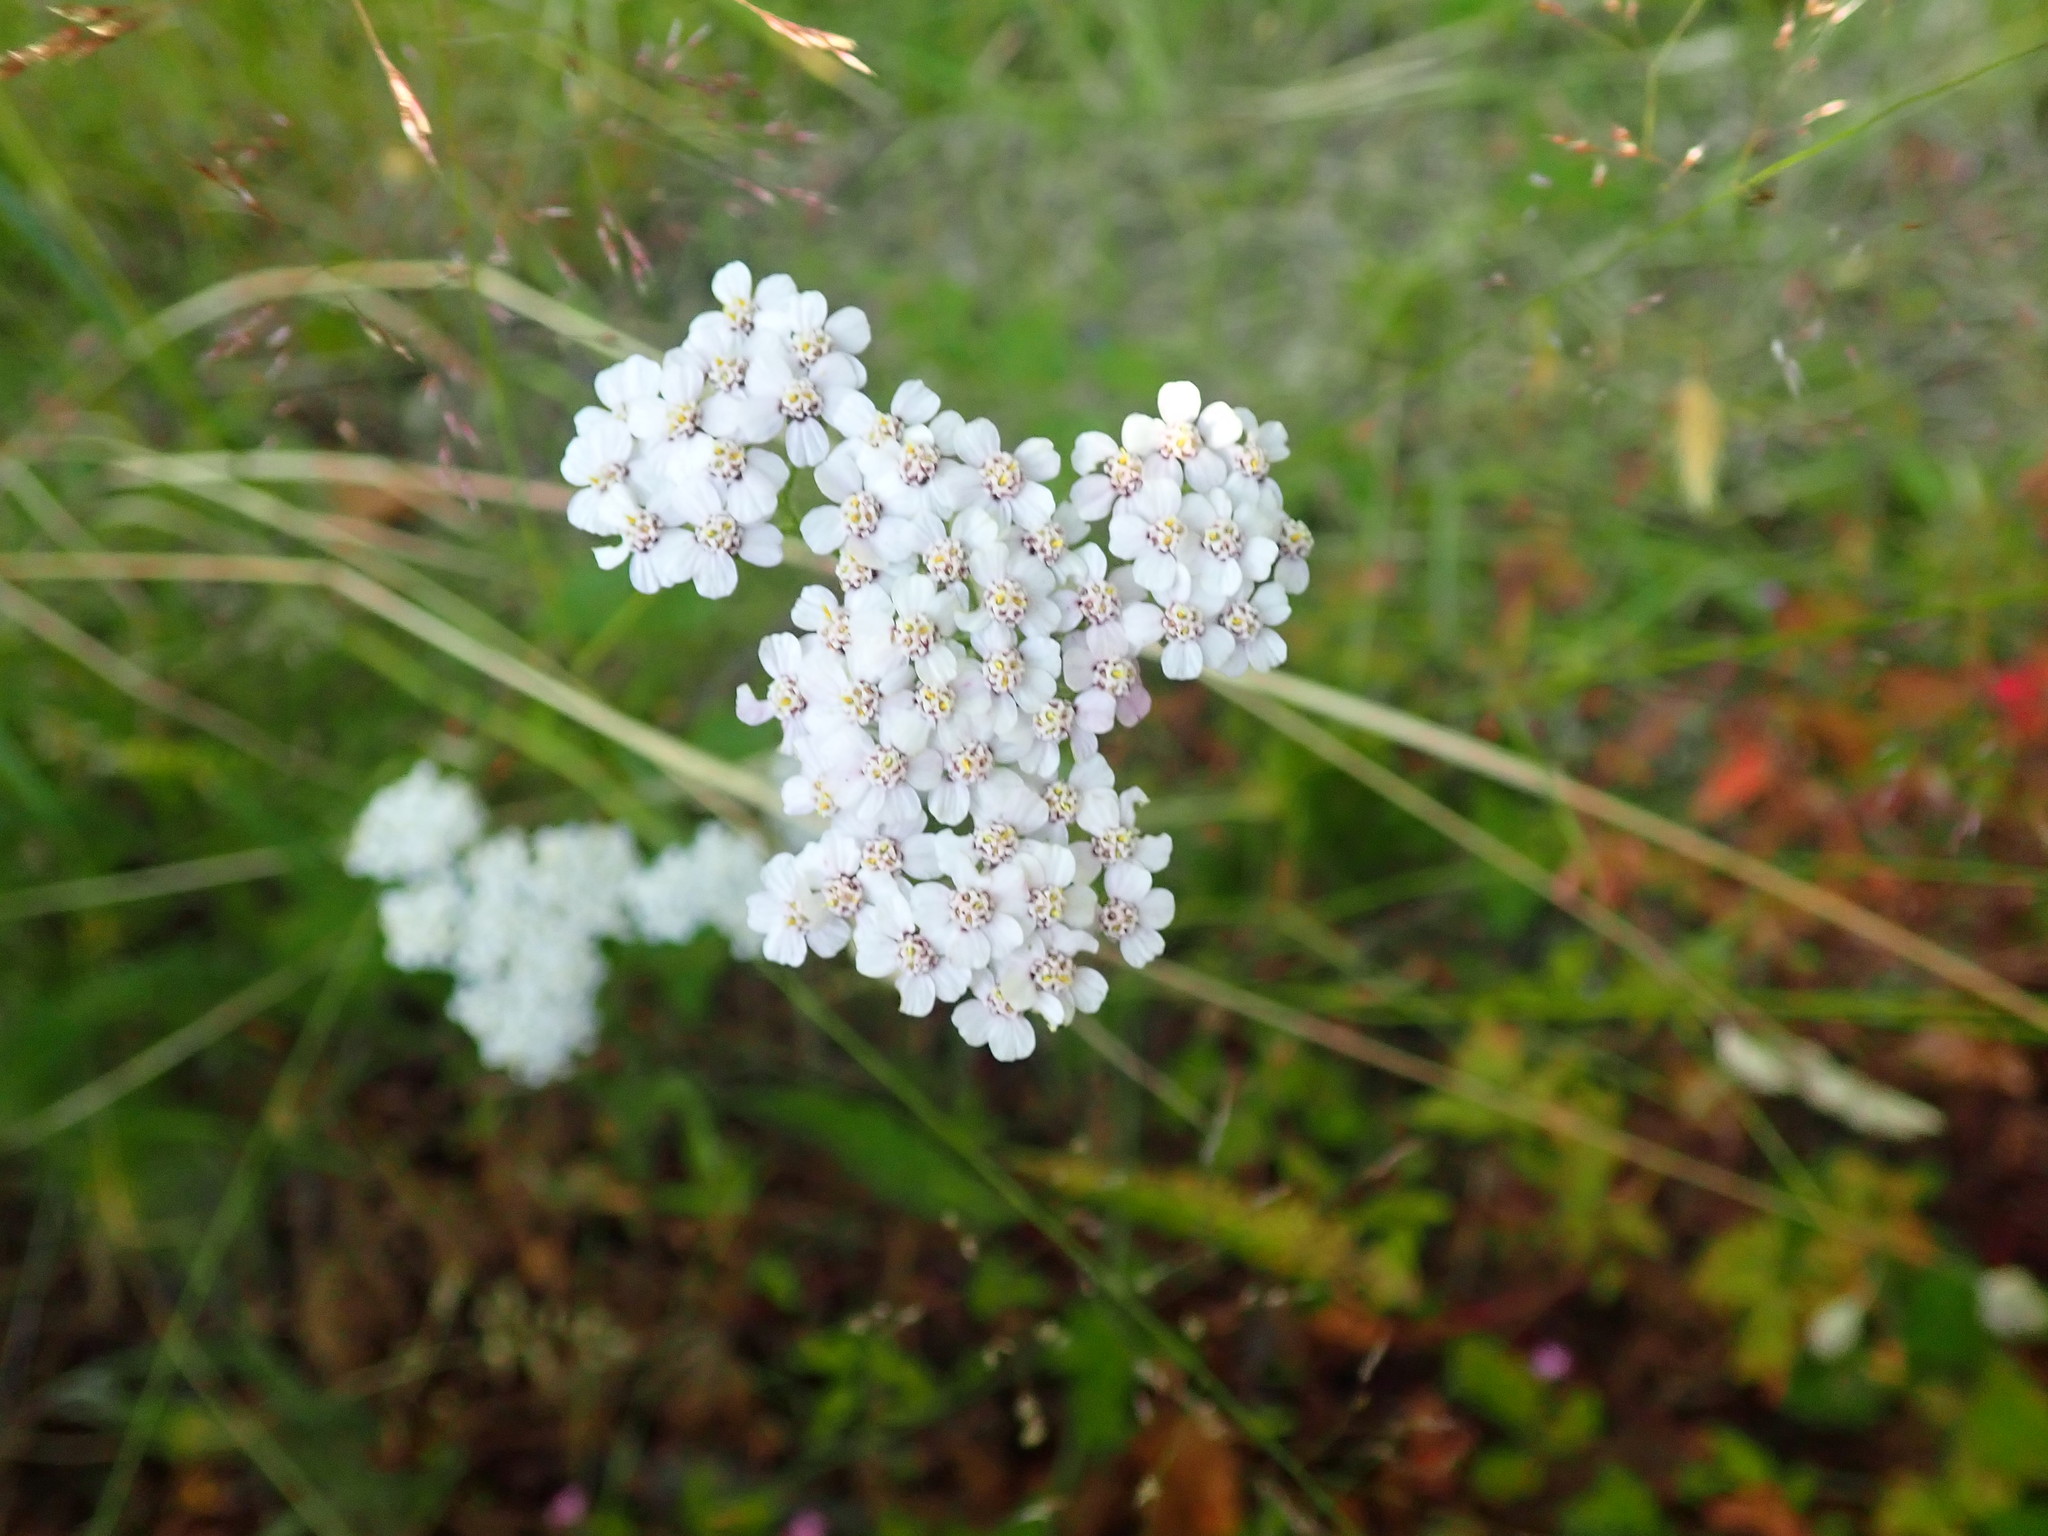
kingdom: Plantae
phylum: Tracheophyta
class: Magnoliopsida
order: Asterales
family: Asteraceae
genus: Achillea
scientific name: Achillea millefolium
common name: Yarrow
